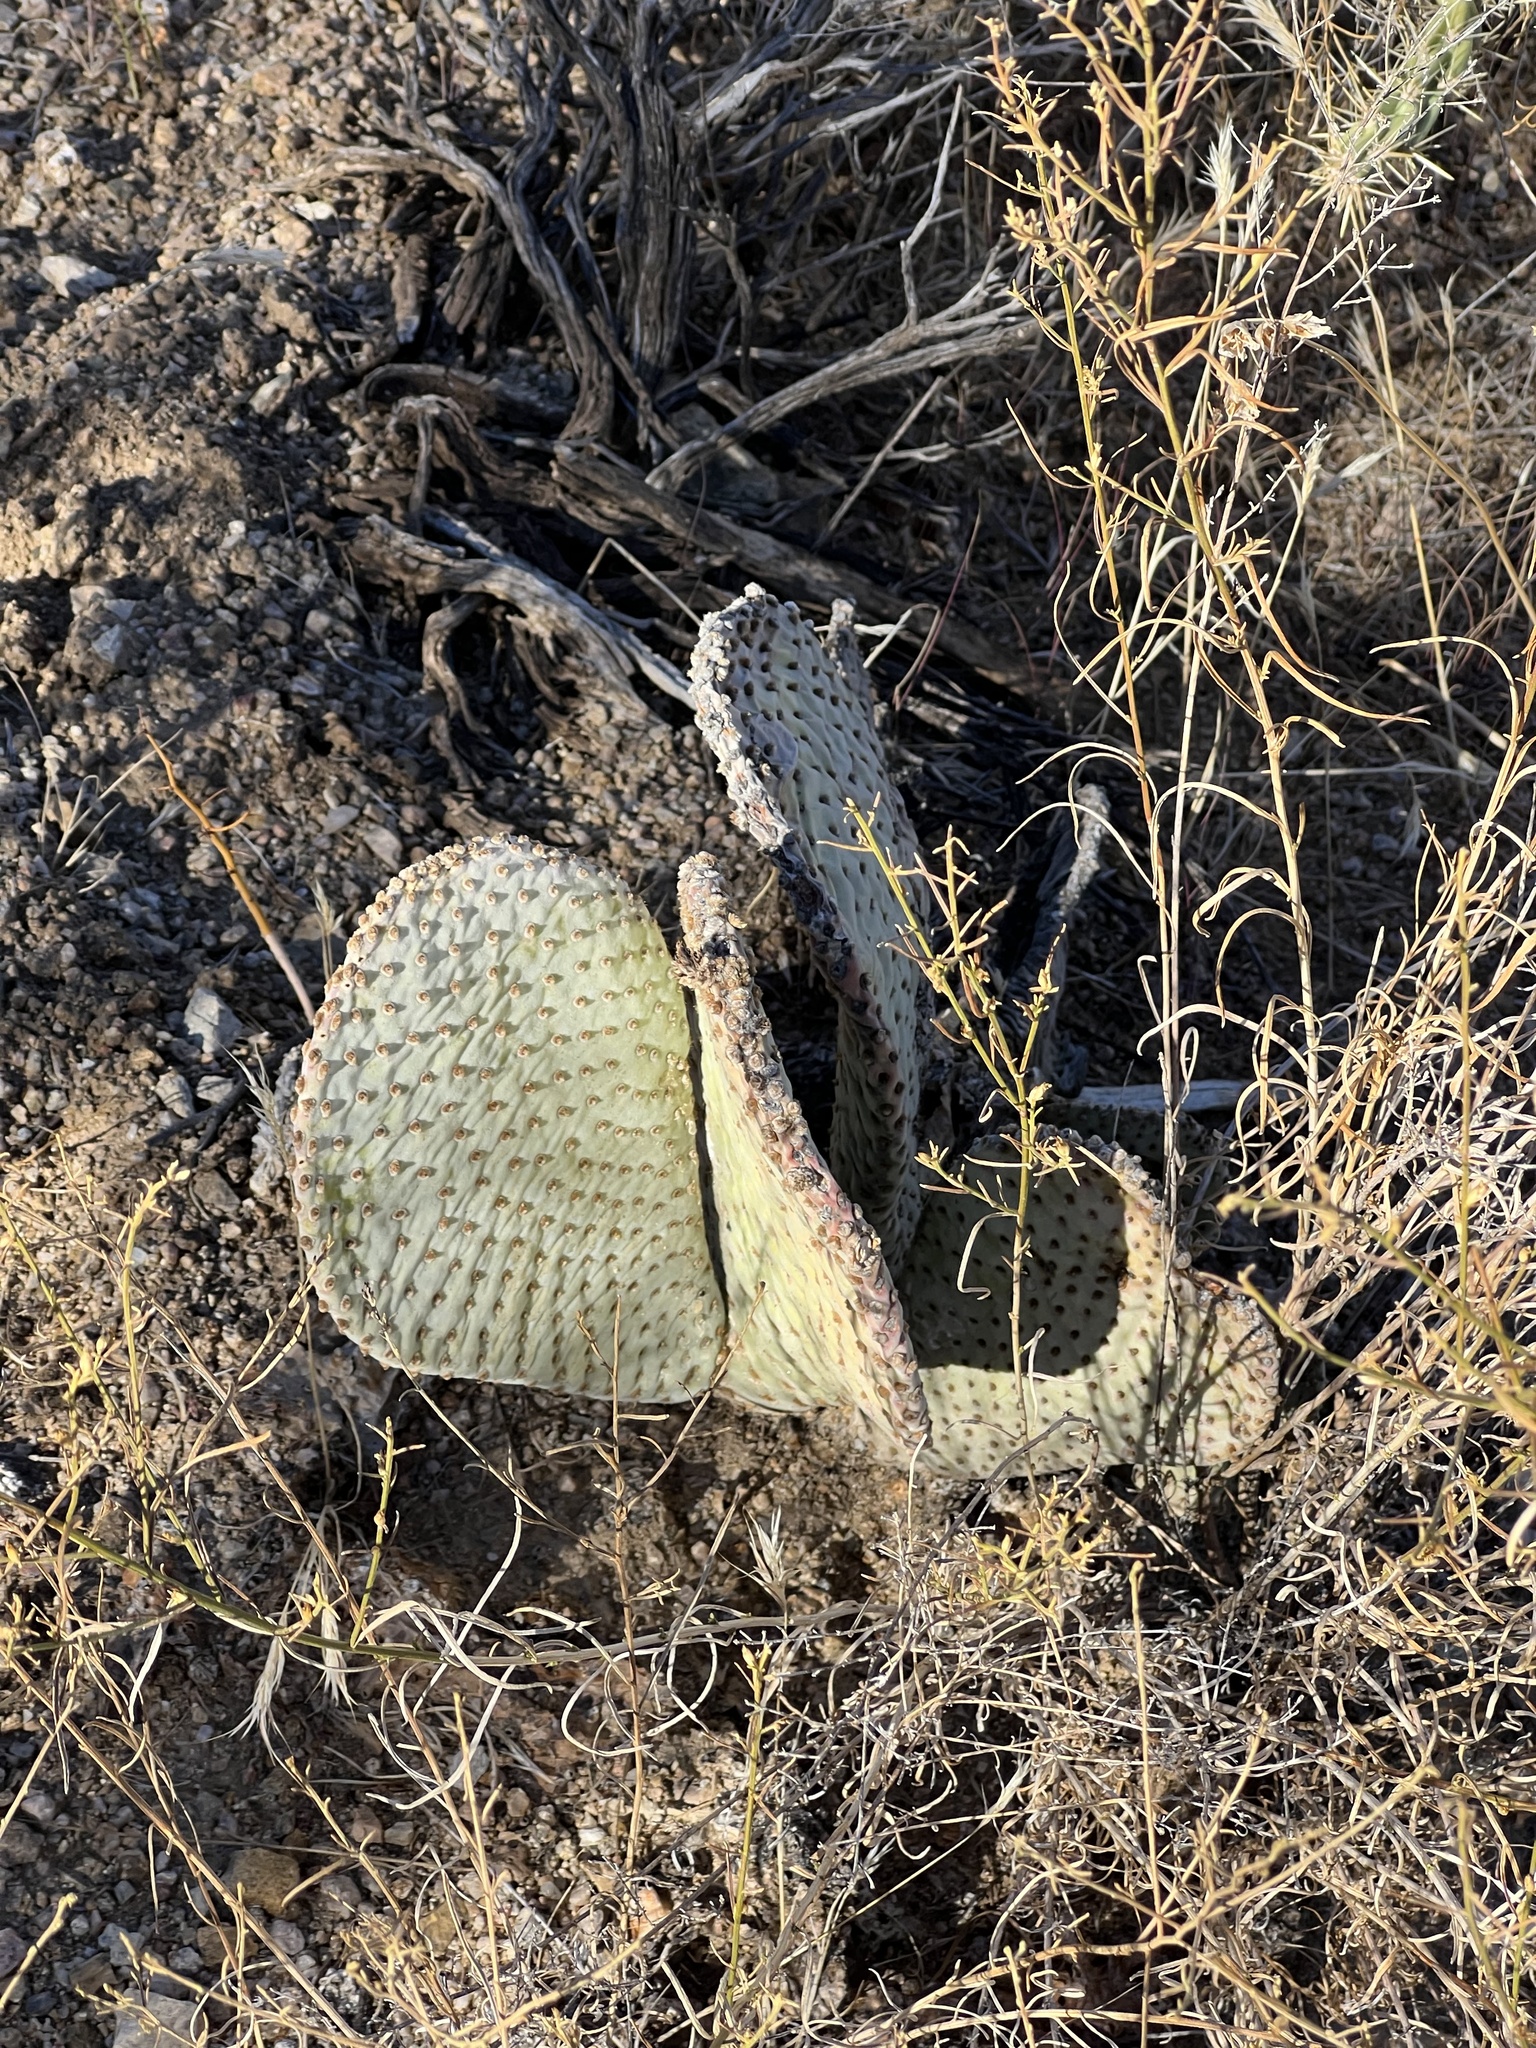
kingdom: Plantae
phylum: Tracheophyta
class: Magnoliopsida
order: Caryophyllales
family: Cactaceae
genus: Opuntia
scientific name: Opuntia basilaris
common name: Beavertail prickly-pear
